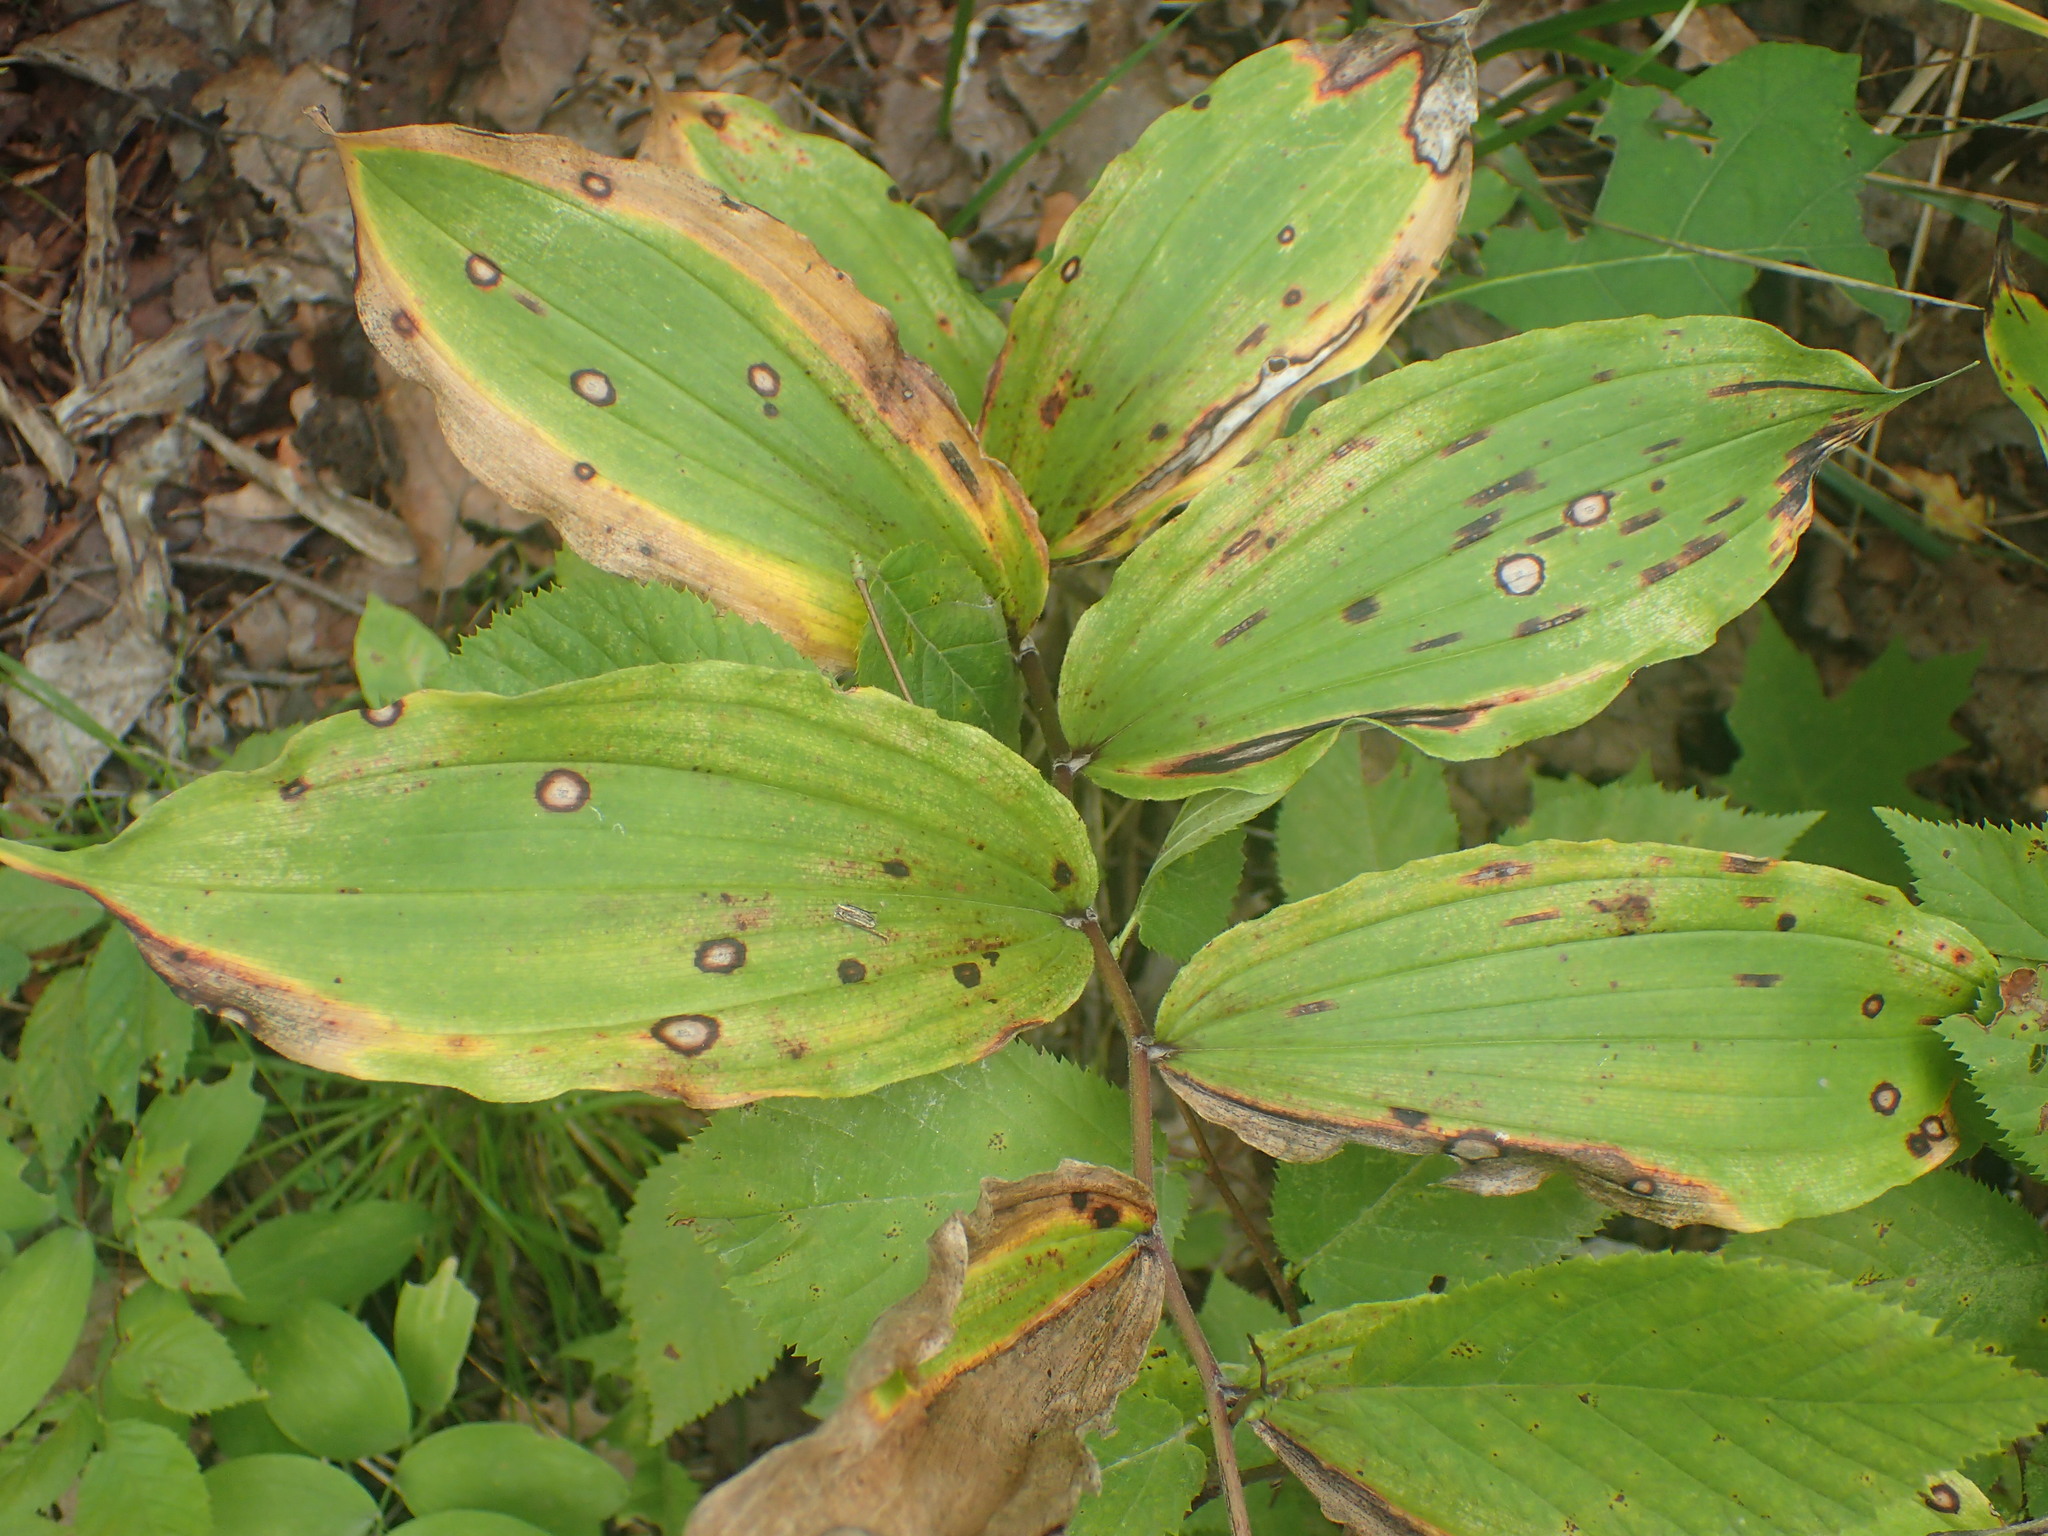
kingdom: Plantae
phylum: Tracheophyta
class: Liliopsida
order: Asparagales
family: Asparagaceae
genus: Maianthemum
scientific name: Maianthemum racemosum
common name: False spikenard
